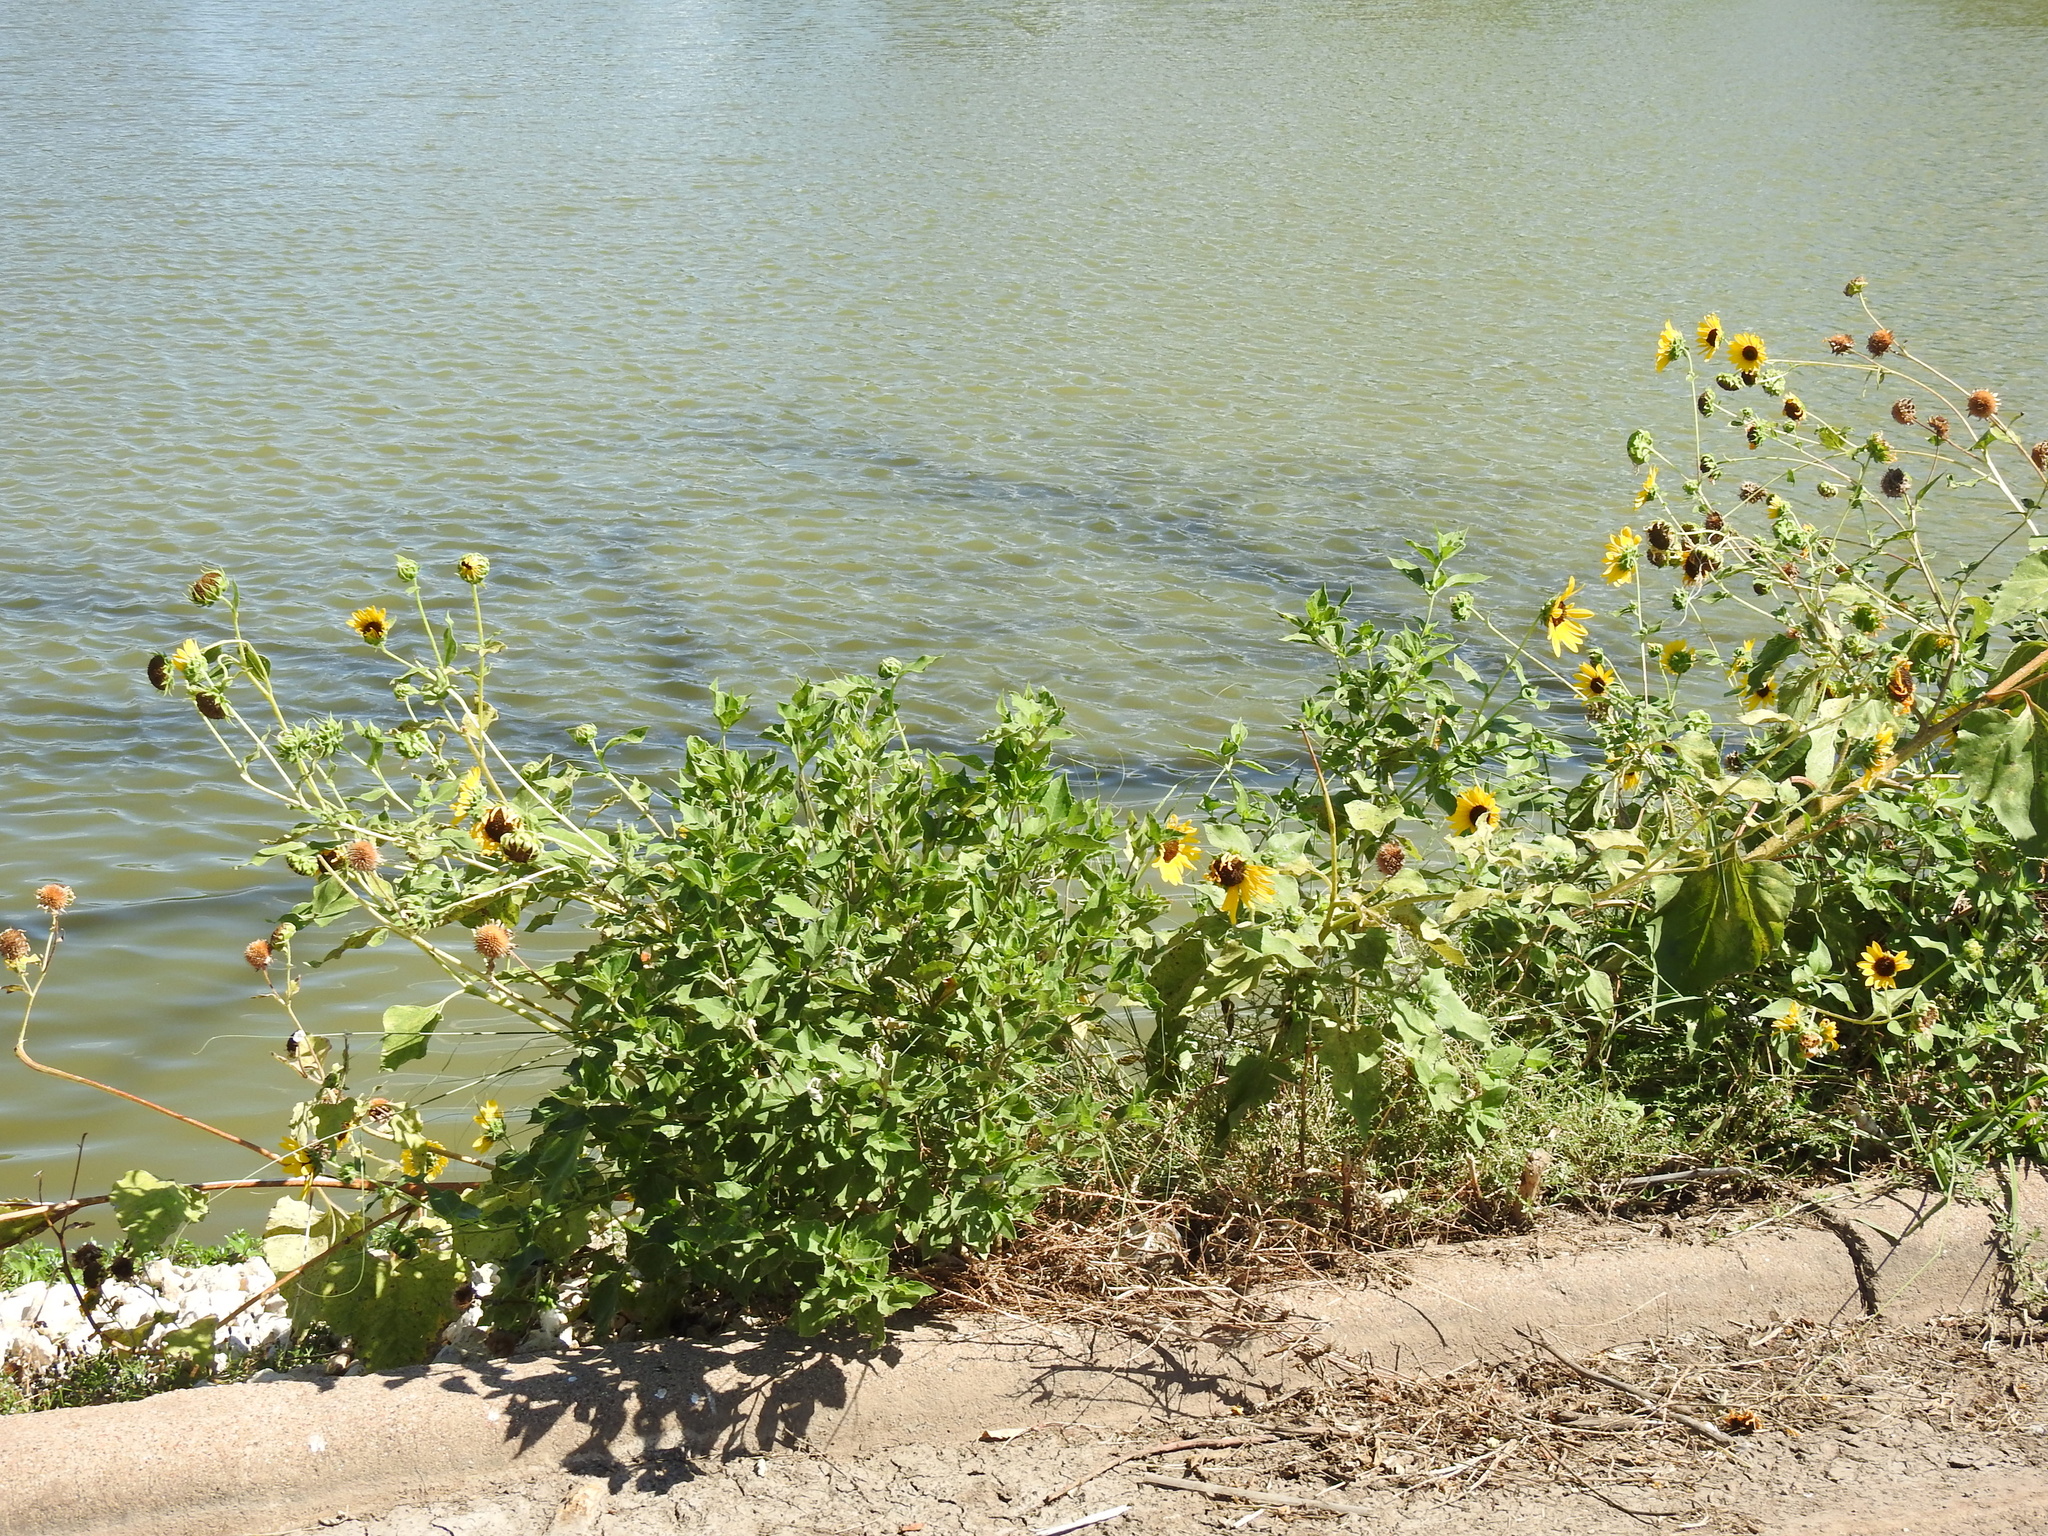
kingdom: Plantae
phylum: Tracheophyta
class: Magnoliopsida
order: Asterales
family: Asteraceae
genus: Helianthus
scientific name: Helianthus annuus
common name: Sunflower
